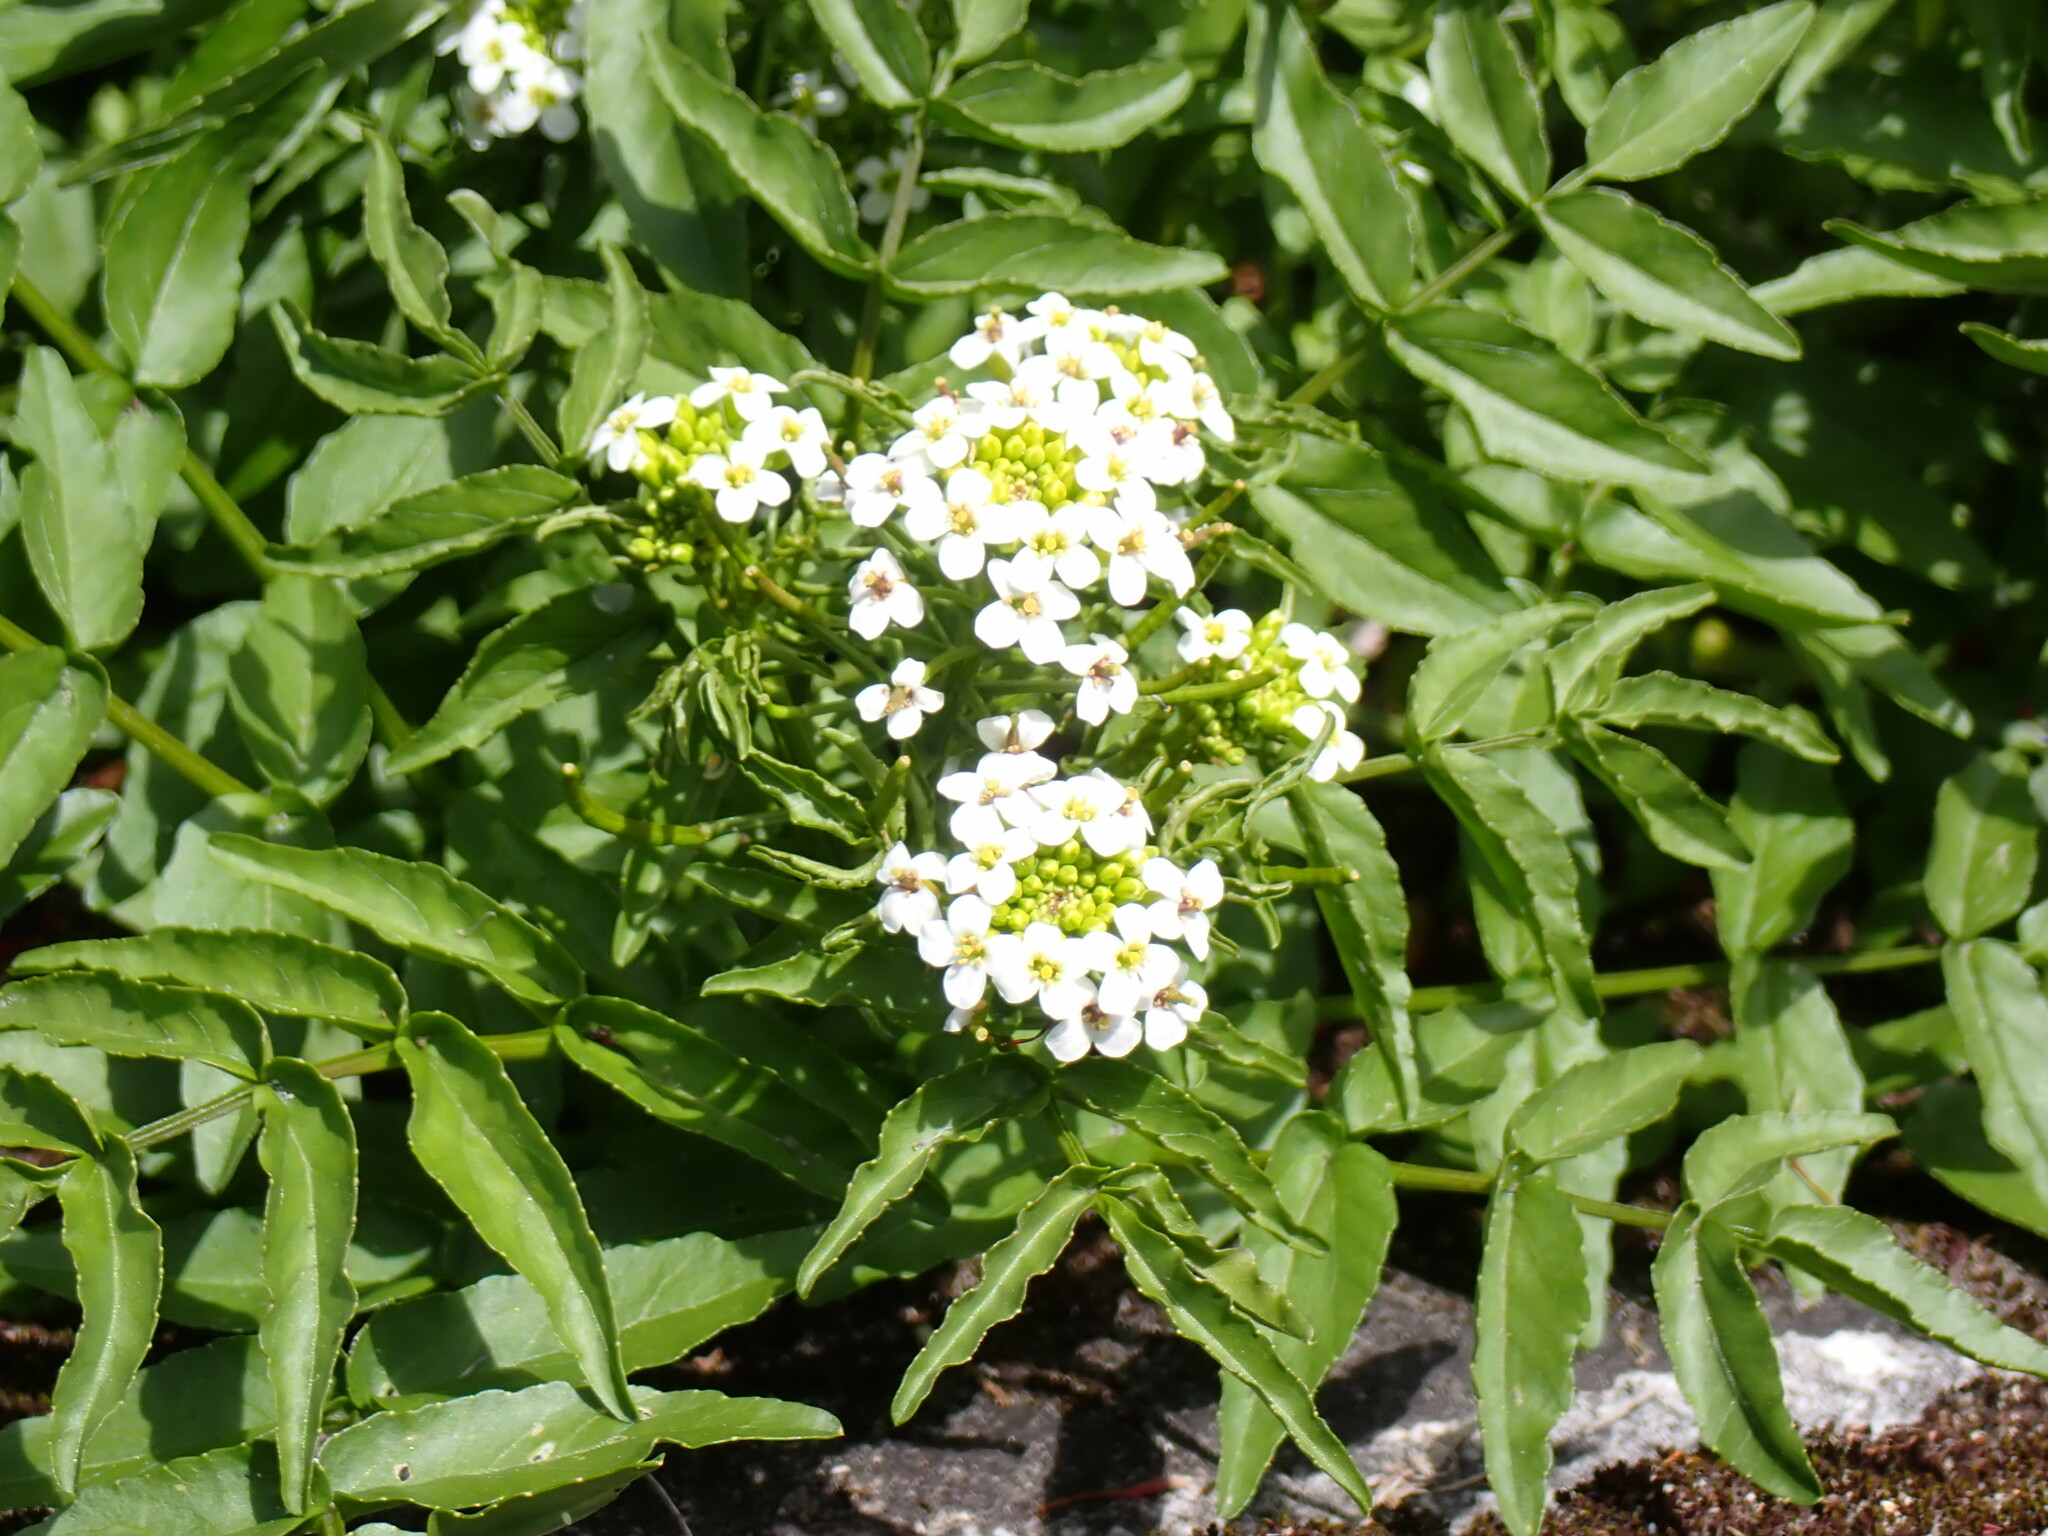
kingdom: Plantae
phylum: Tracheophyta
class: Magnoliopsida
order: Brassicales
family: Brassicaceae
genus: Nasturtium
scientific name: Nasturtium officinale
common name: Watercress
